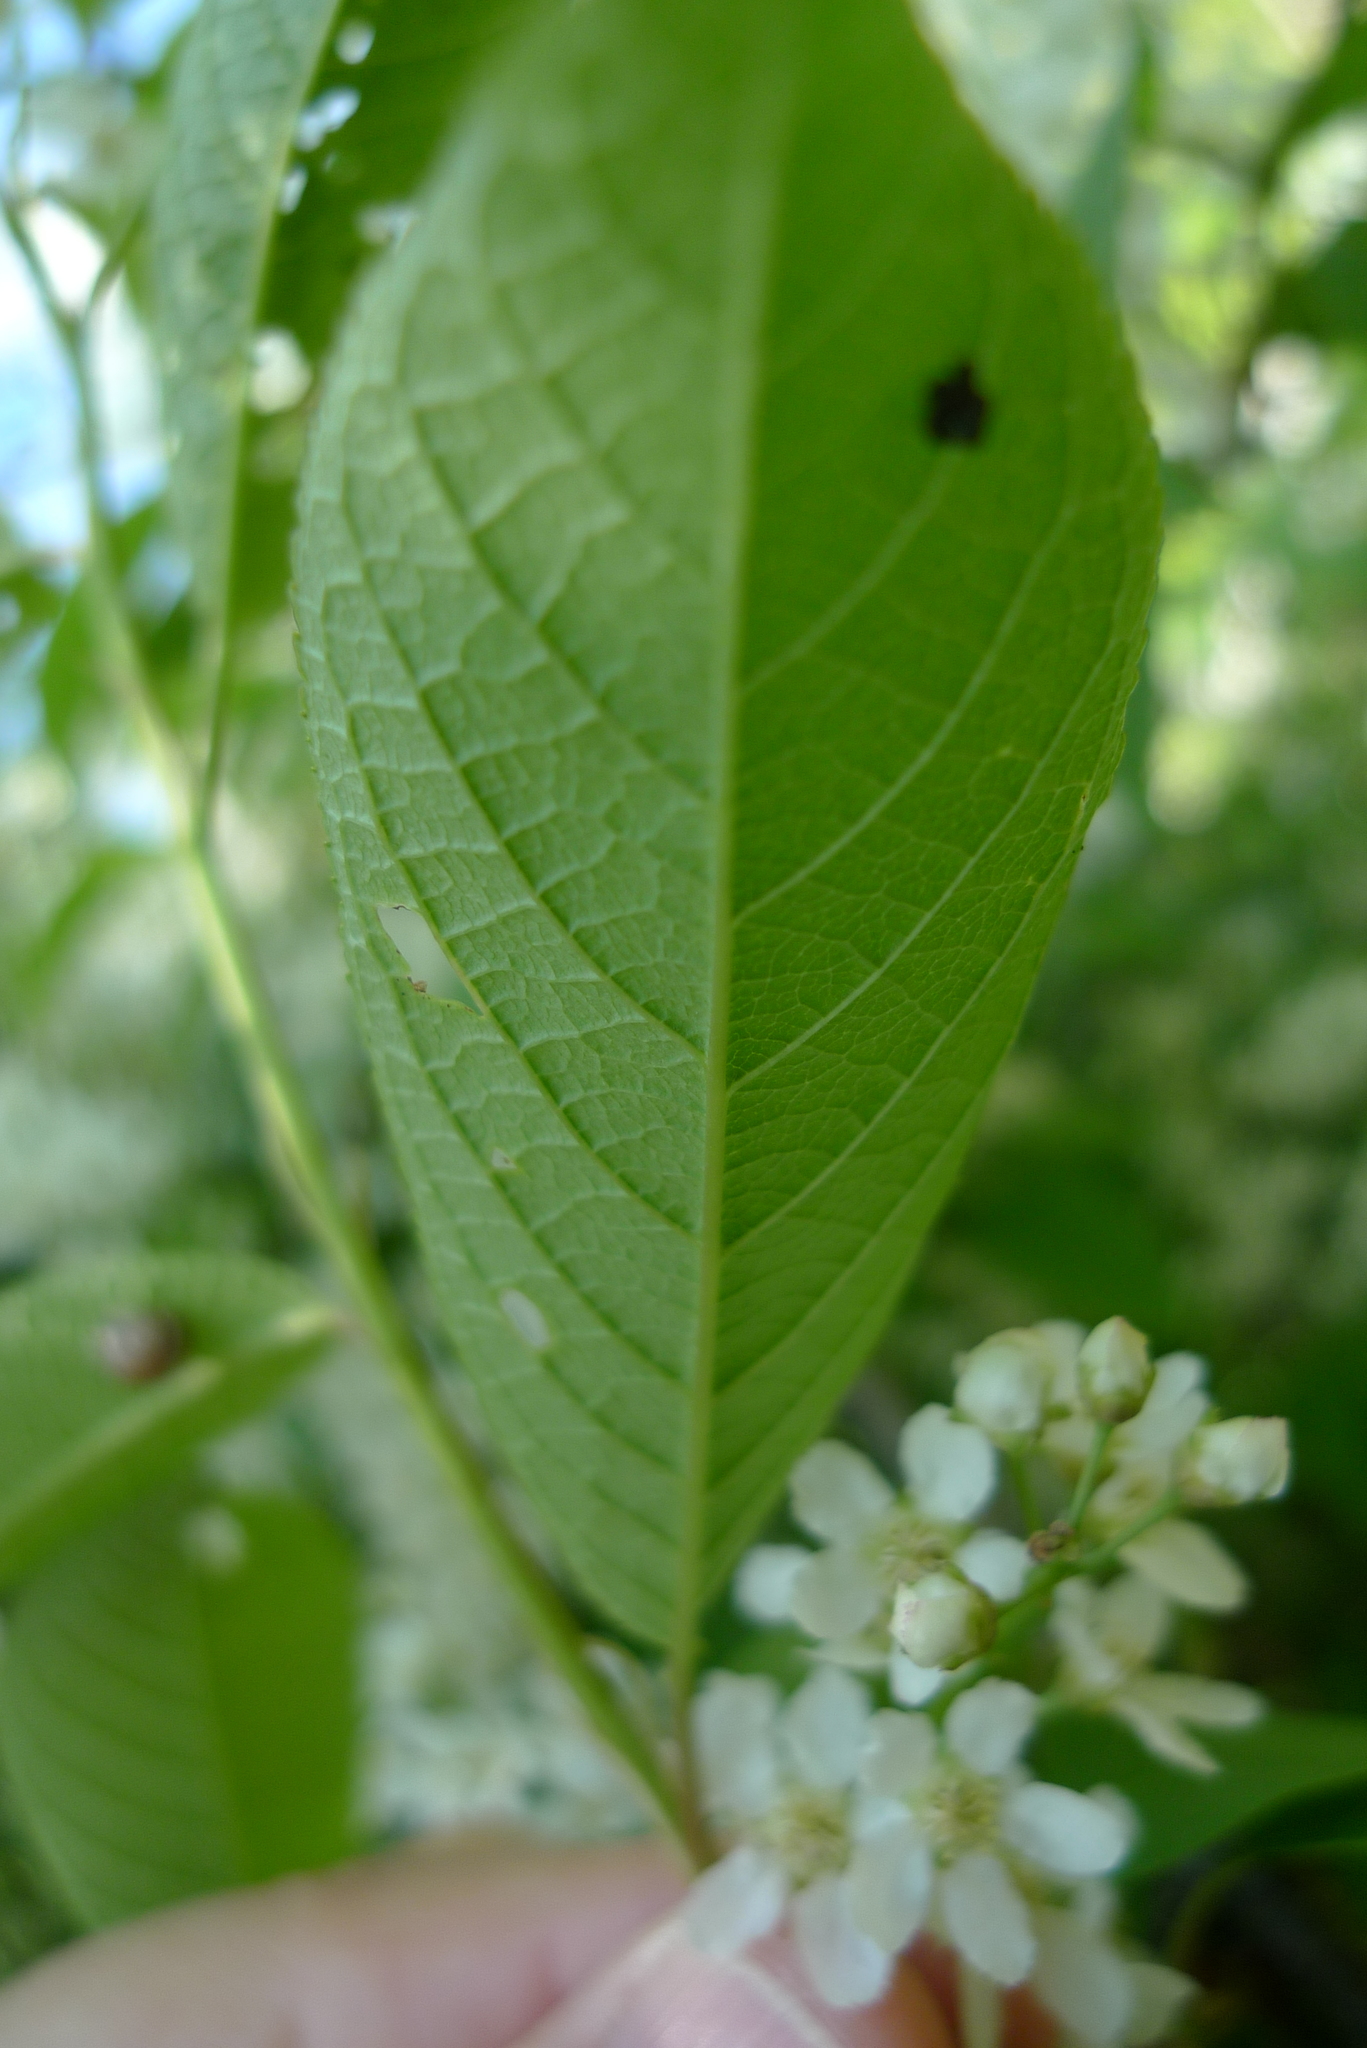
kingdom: Plantae
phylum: Tracheophyta
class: Magnoliopsida
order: Rosales
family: Rosaceae
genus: Prunus
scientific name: Prunus padus
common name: Bird cherry
